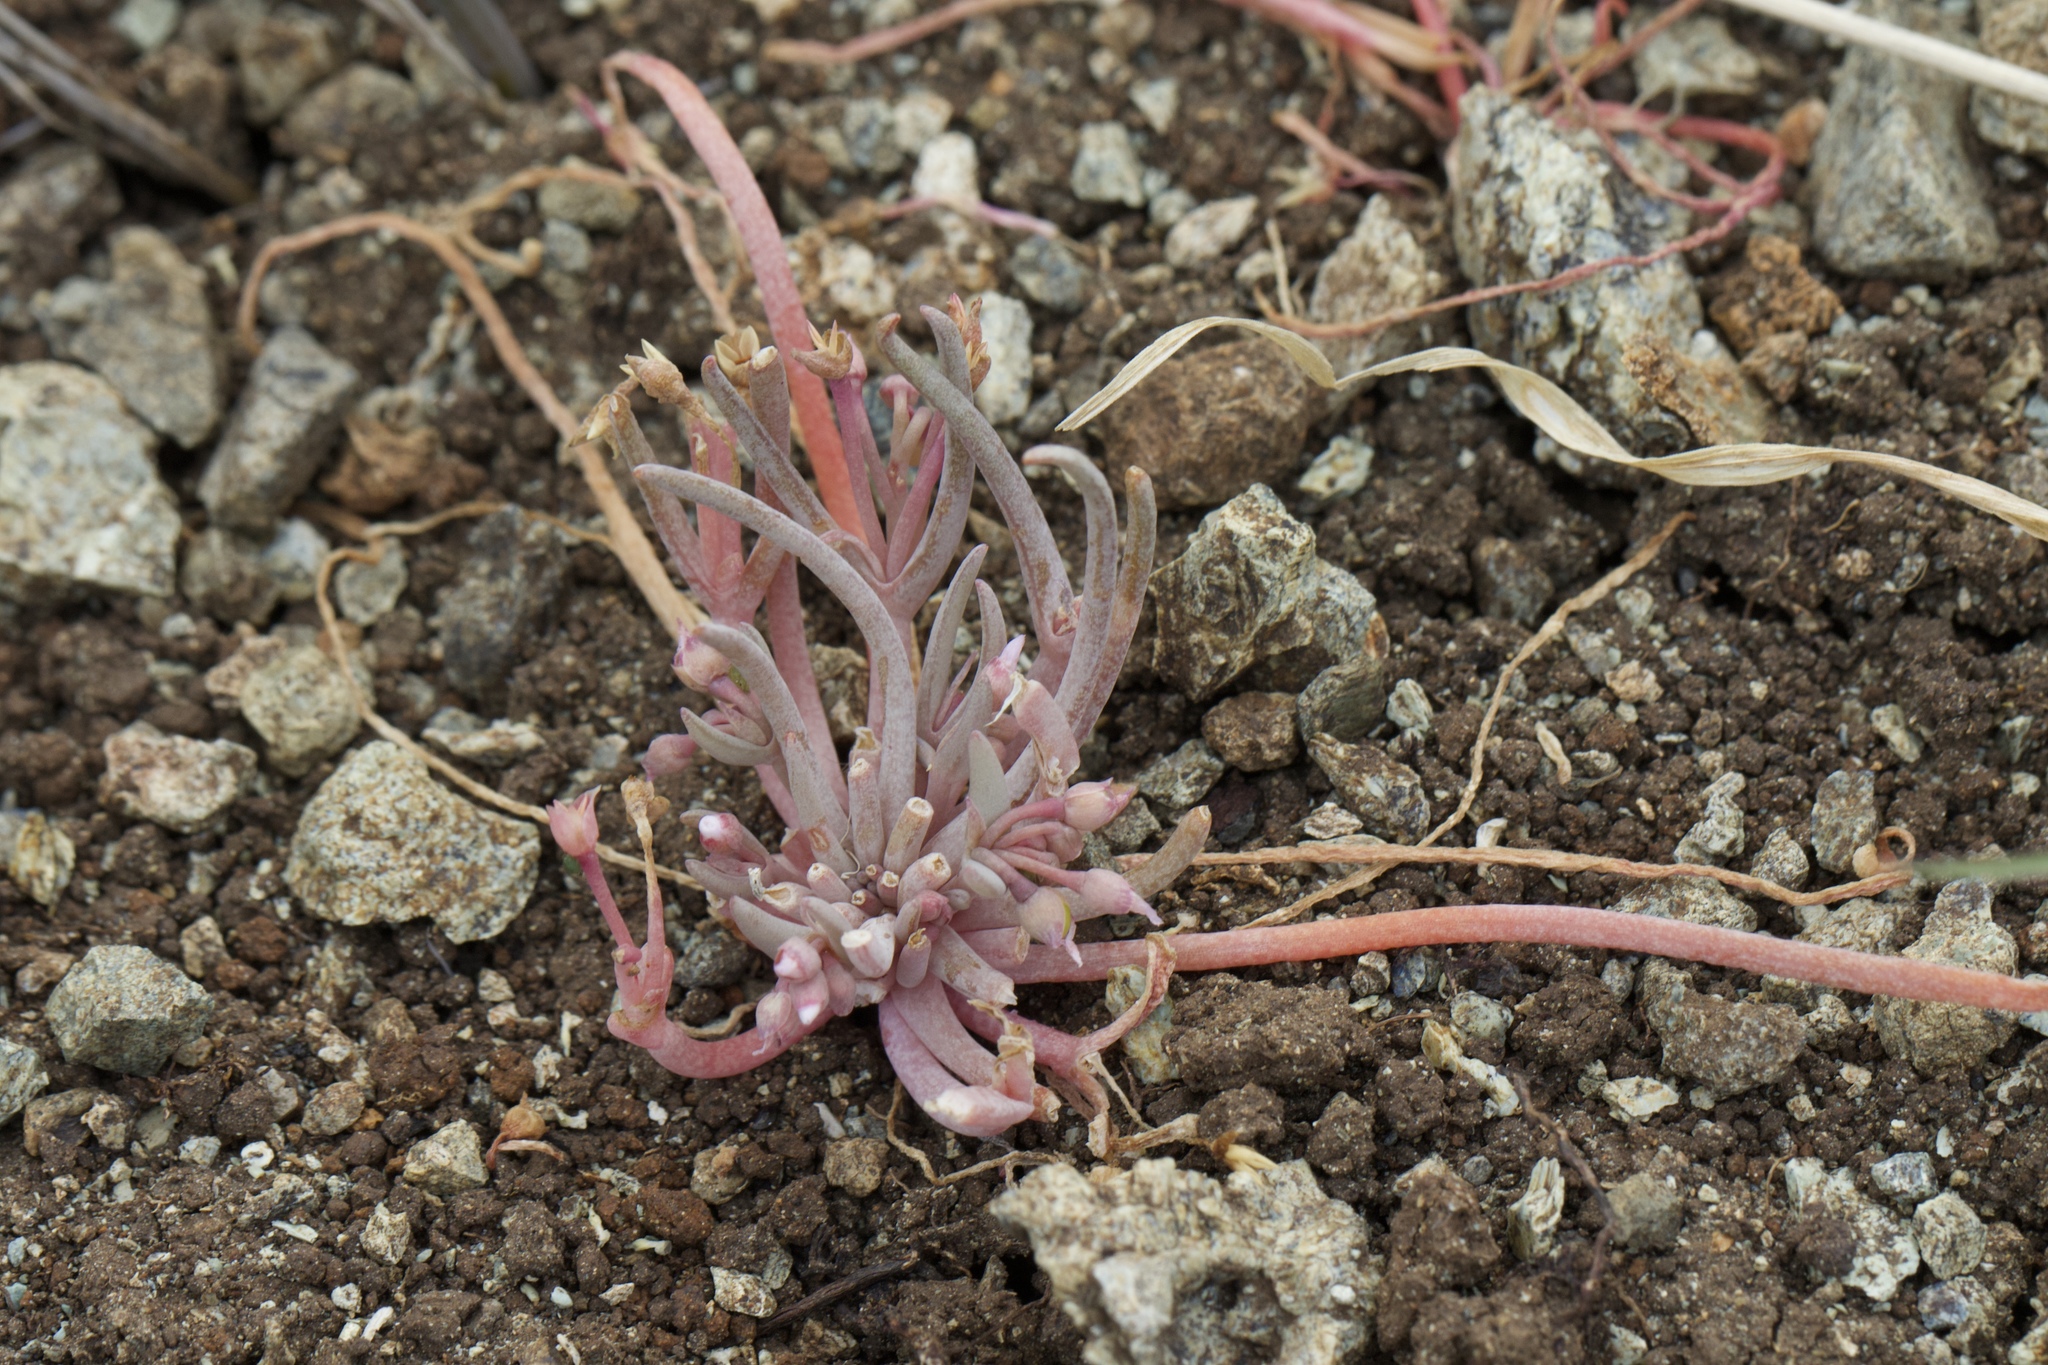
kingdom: Plantae
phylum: Tracheophyta
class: Magnoliopsida
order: Caryophyllales
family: Montiaceae
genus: Claytonia
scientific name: Claytonia exigua
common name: Pale spring beauty
